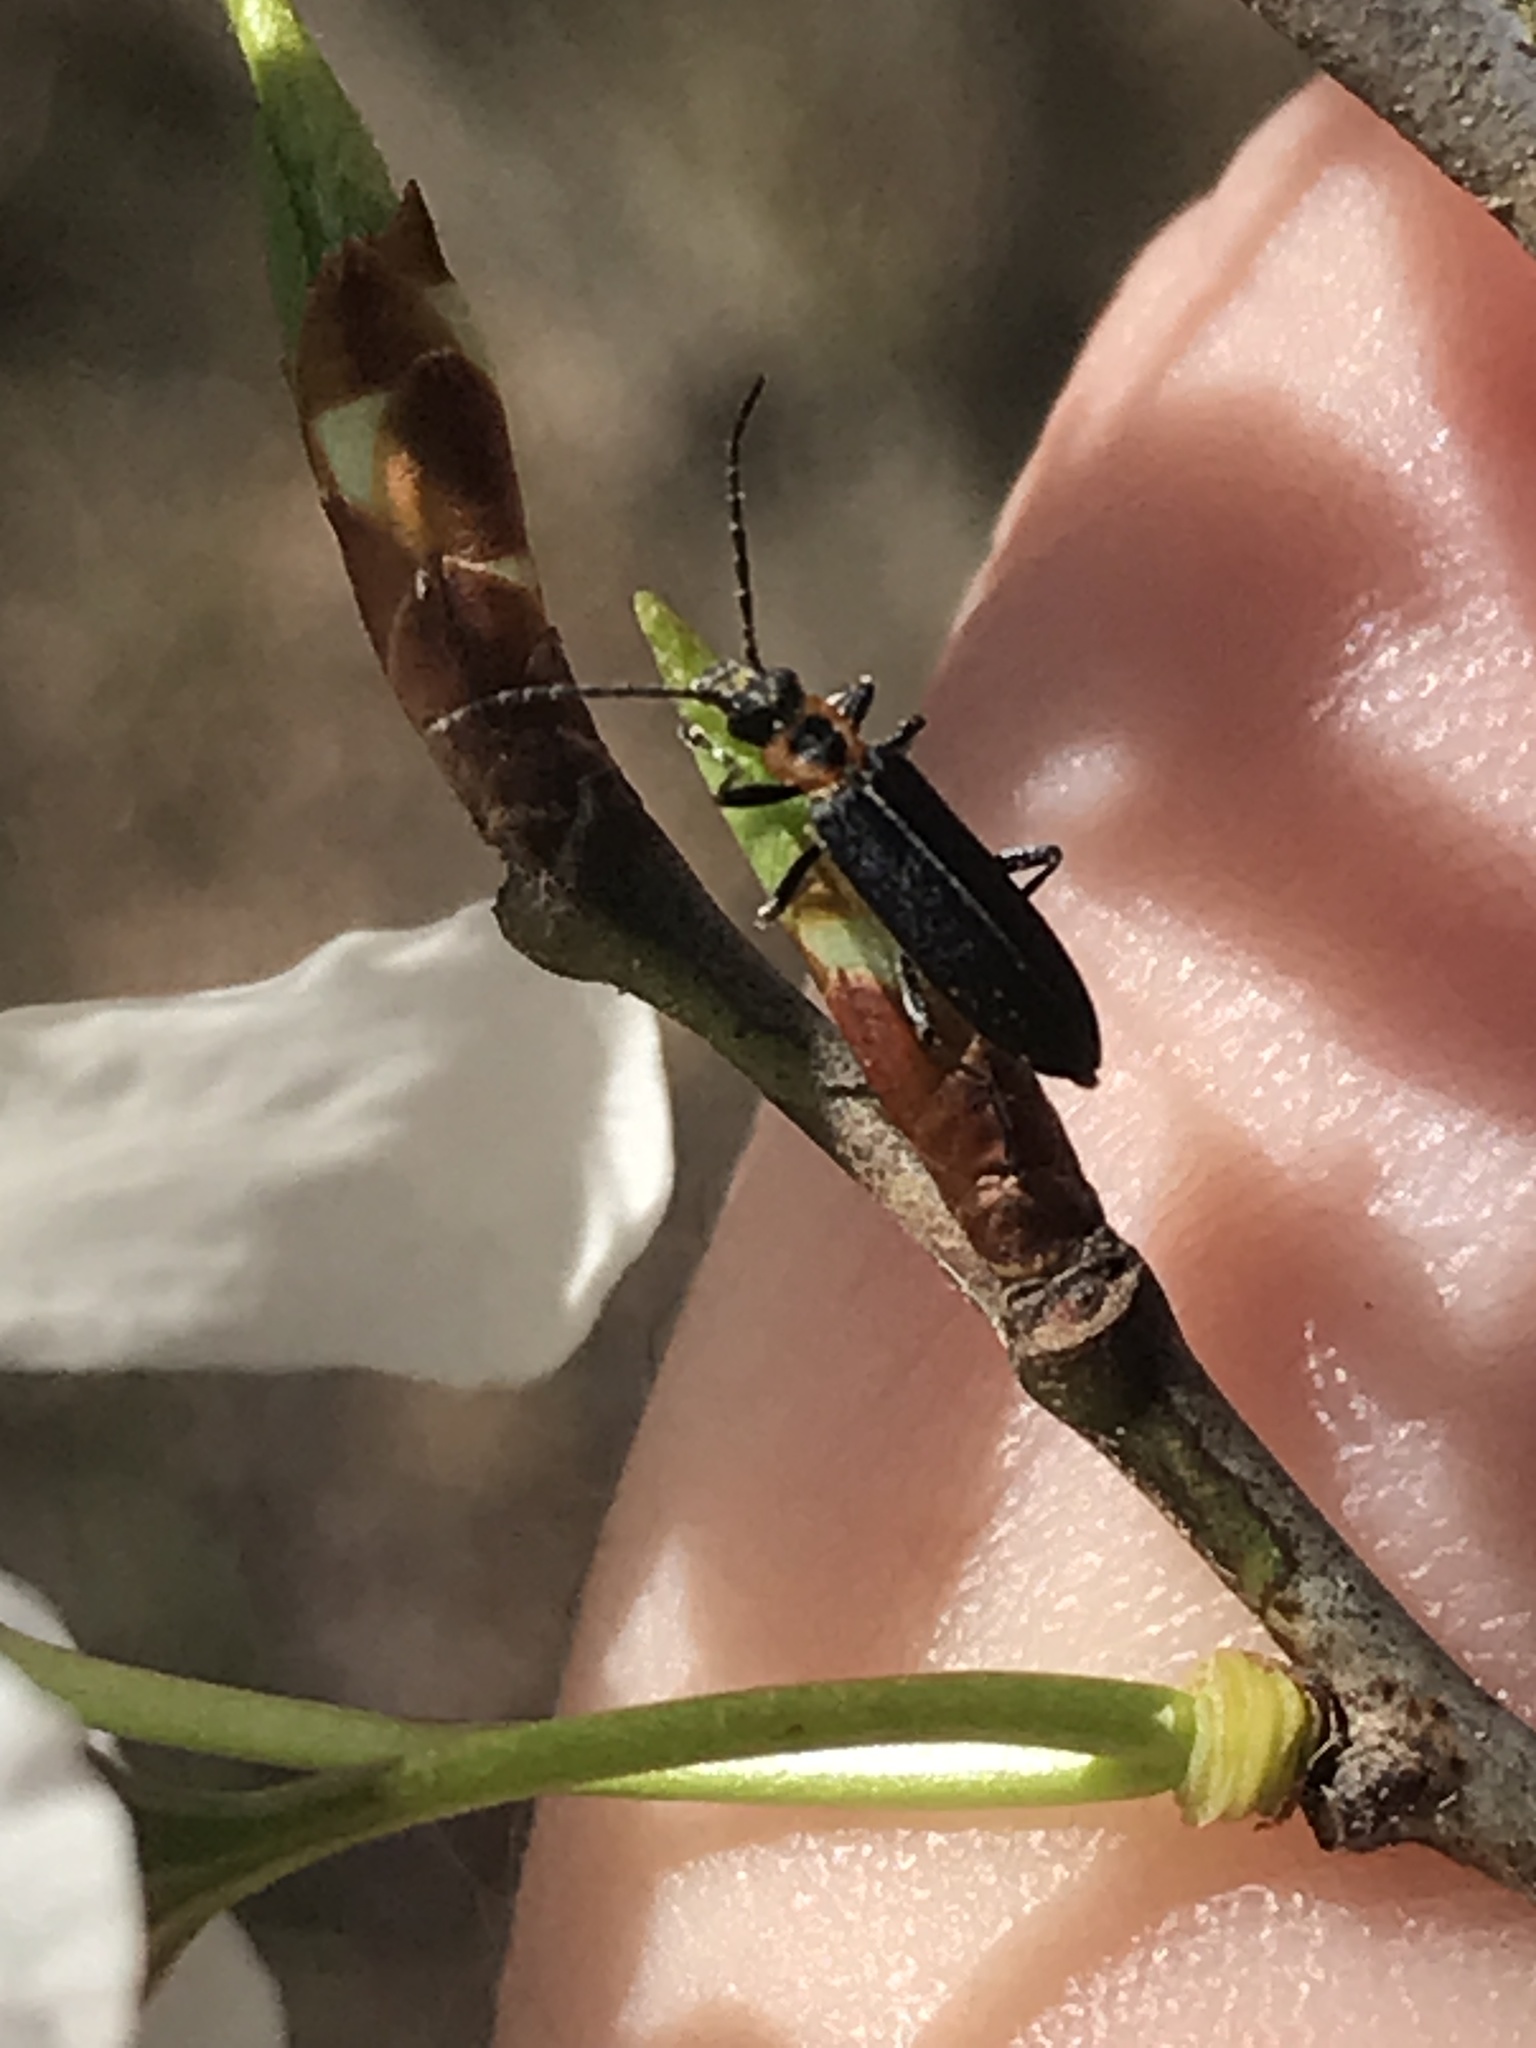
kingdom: Animalia
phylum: Arthropoda
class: Insecta
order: Coleoptera
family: Oedemeridae
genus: Ischnomera
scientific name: Ischnomera
